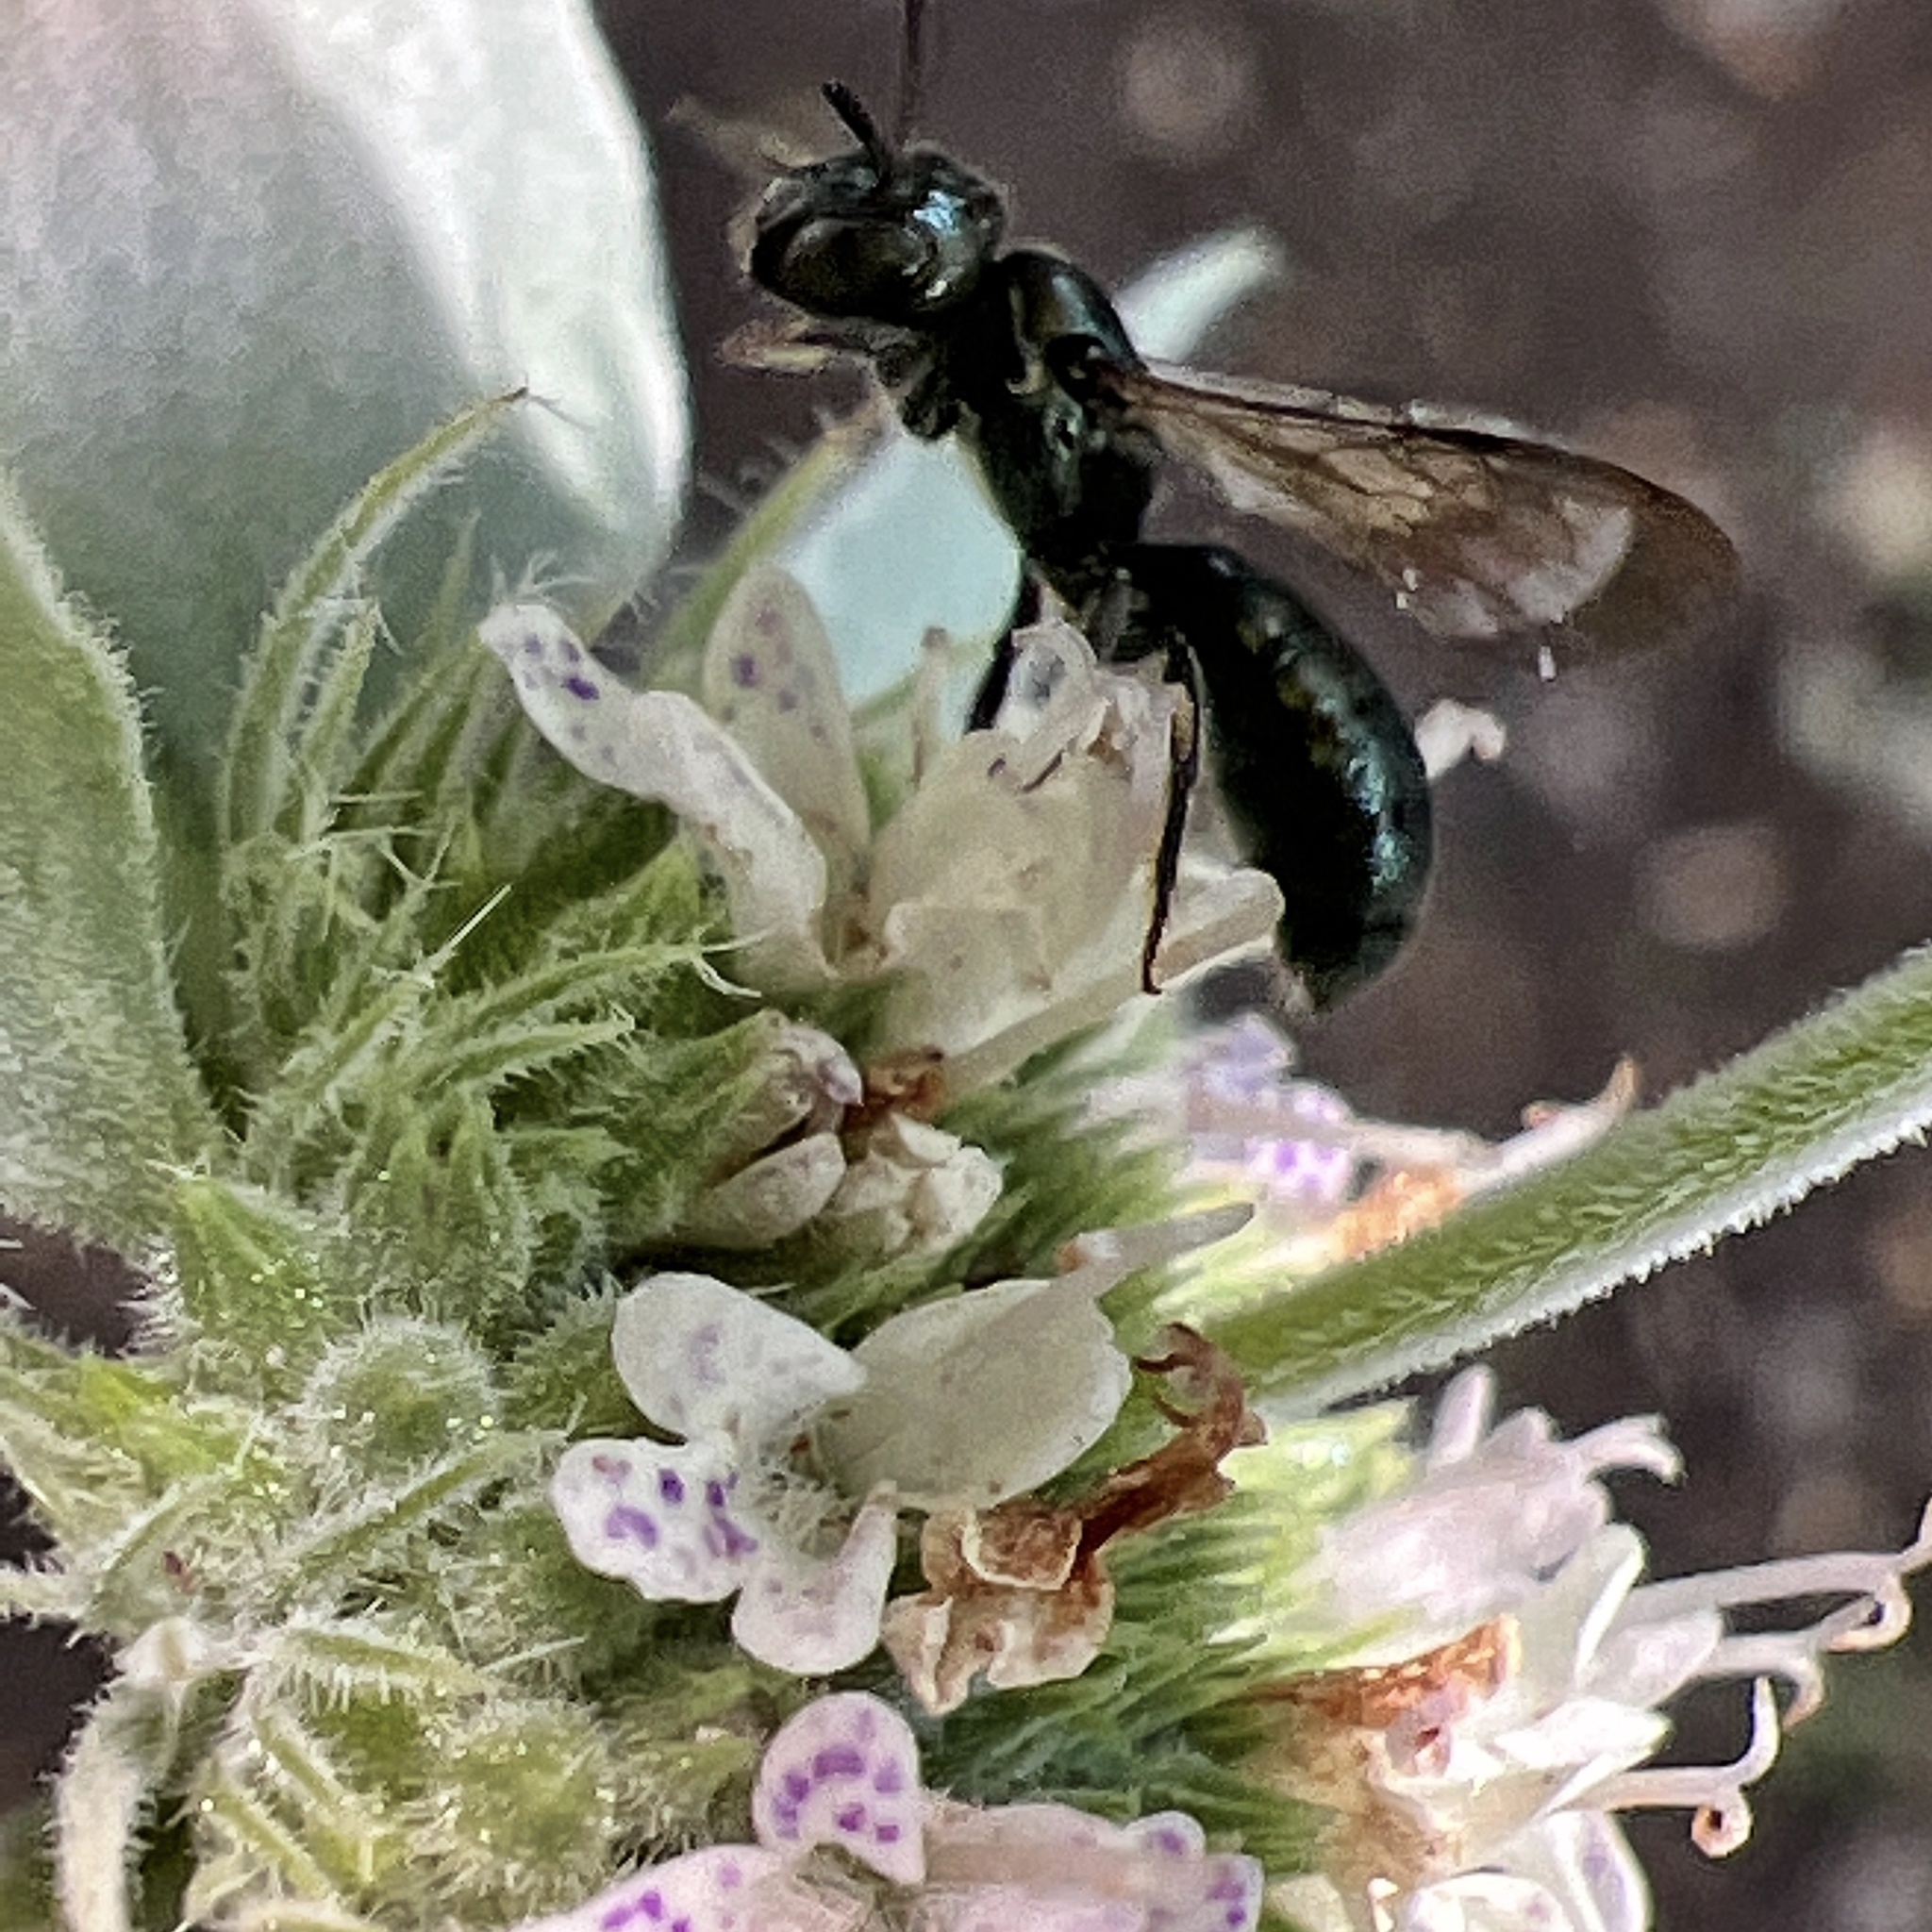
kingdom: Animalia
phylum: Arthropoda
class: Insecta
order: Hymenoptera
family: Apidae
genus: Zadontomerus
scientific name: Zadontomerus
